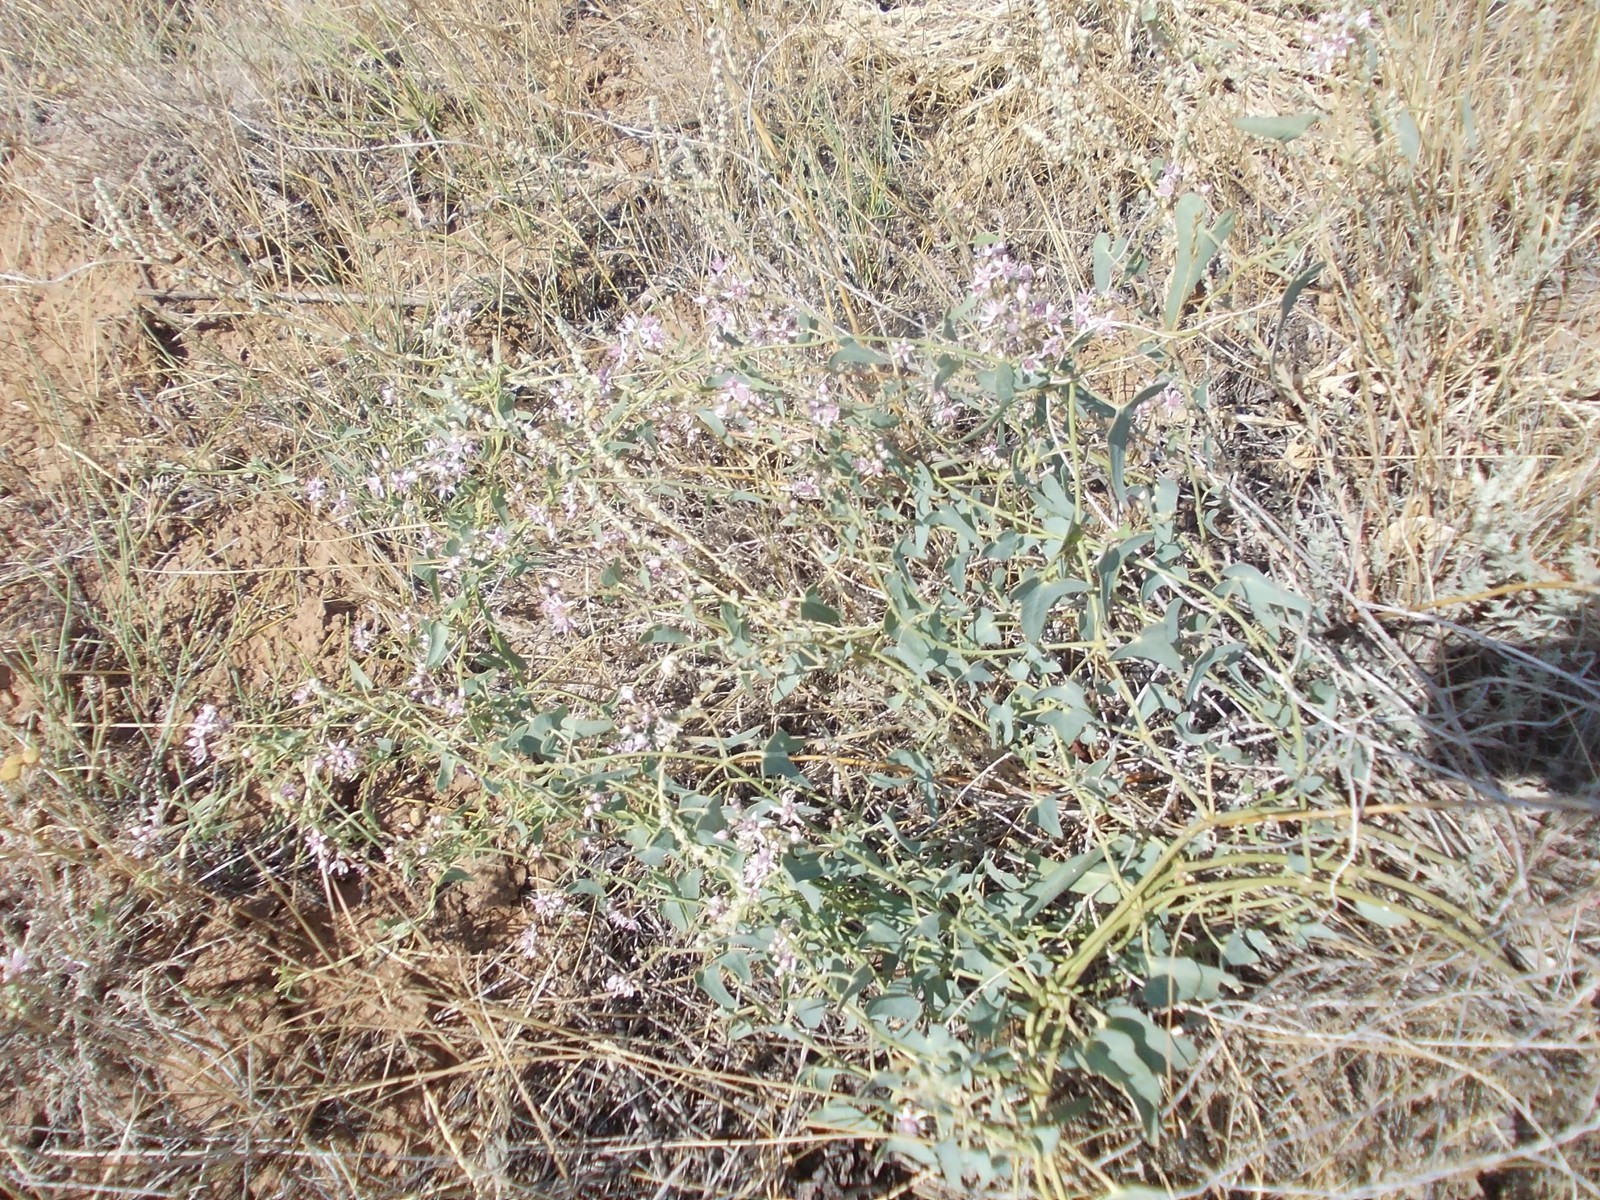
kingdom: Plantae
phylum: Tracheophyta
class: Magnoliopsida
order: Gentianales
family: Apocynaceae
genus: Cynanchum
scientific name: Cynanchum acutum
